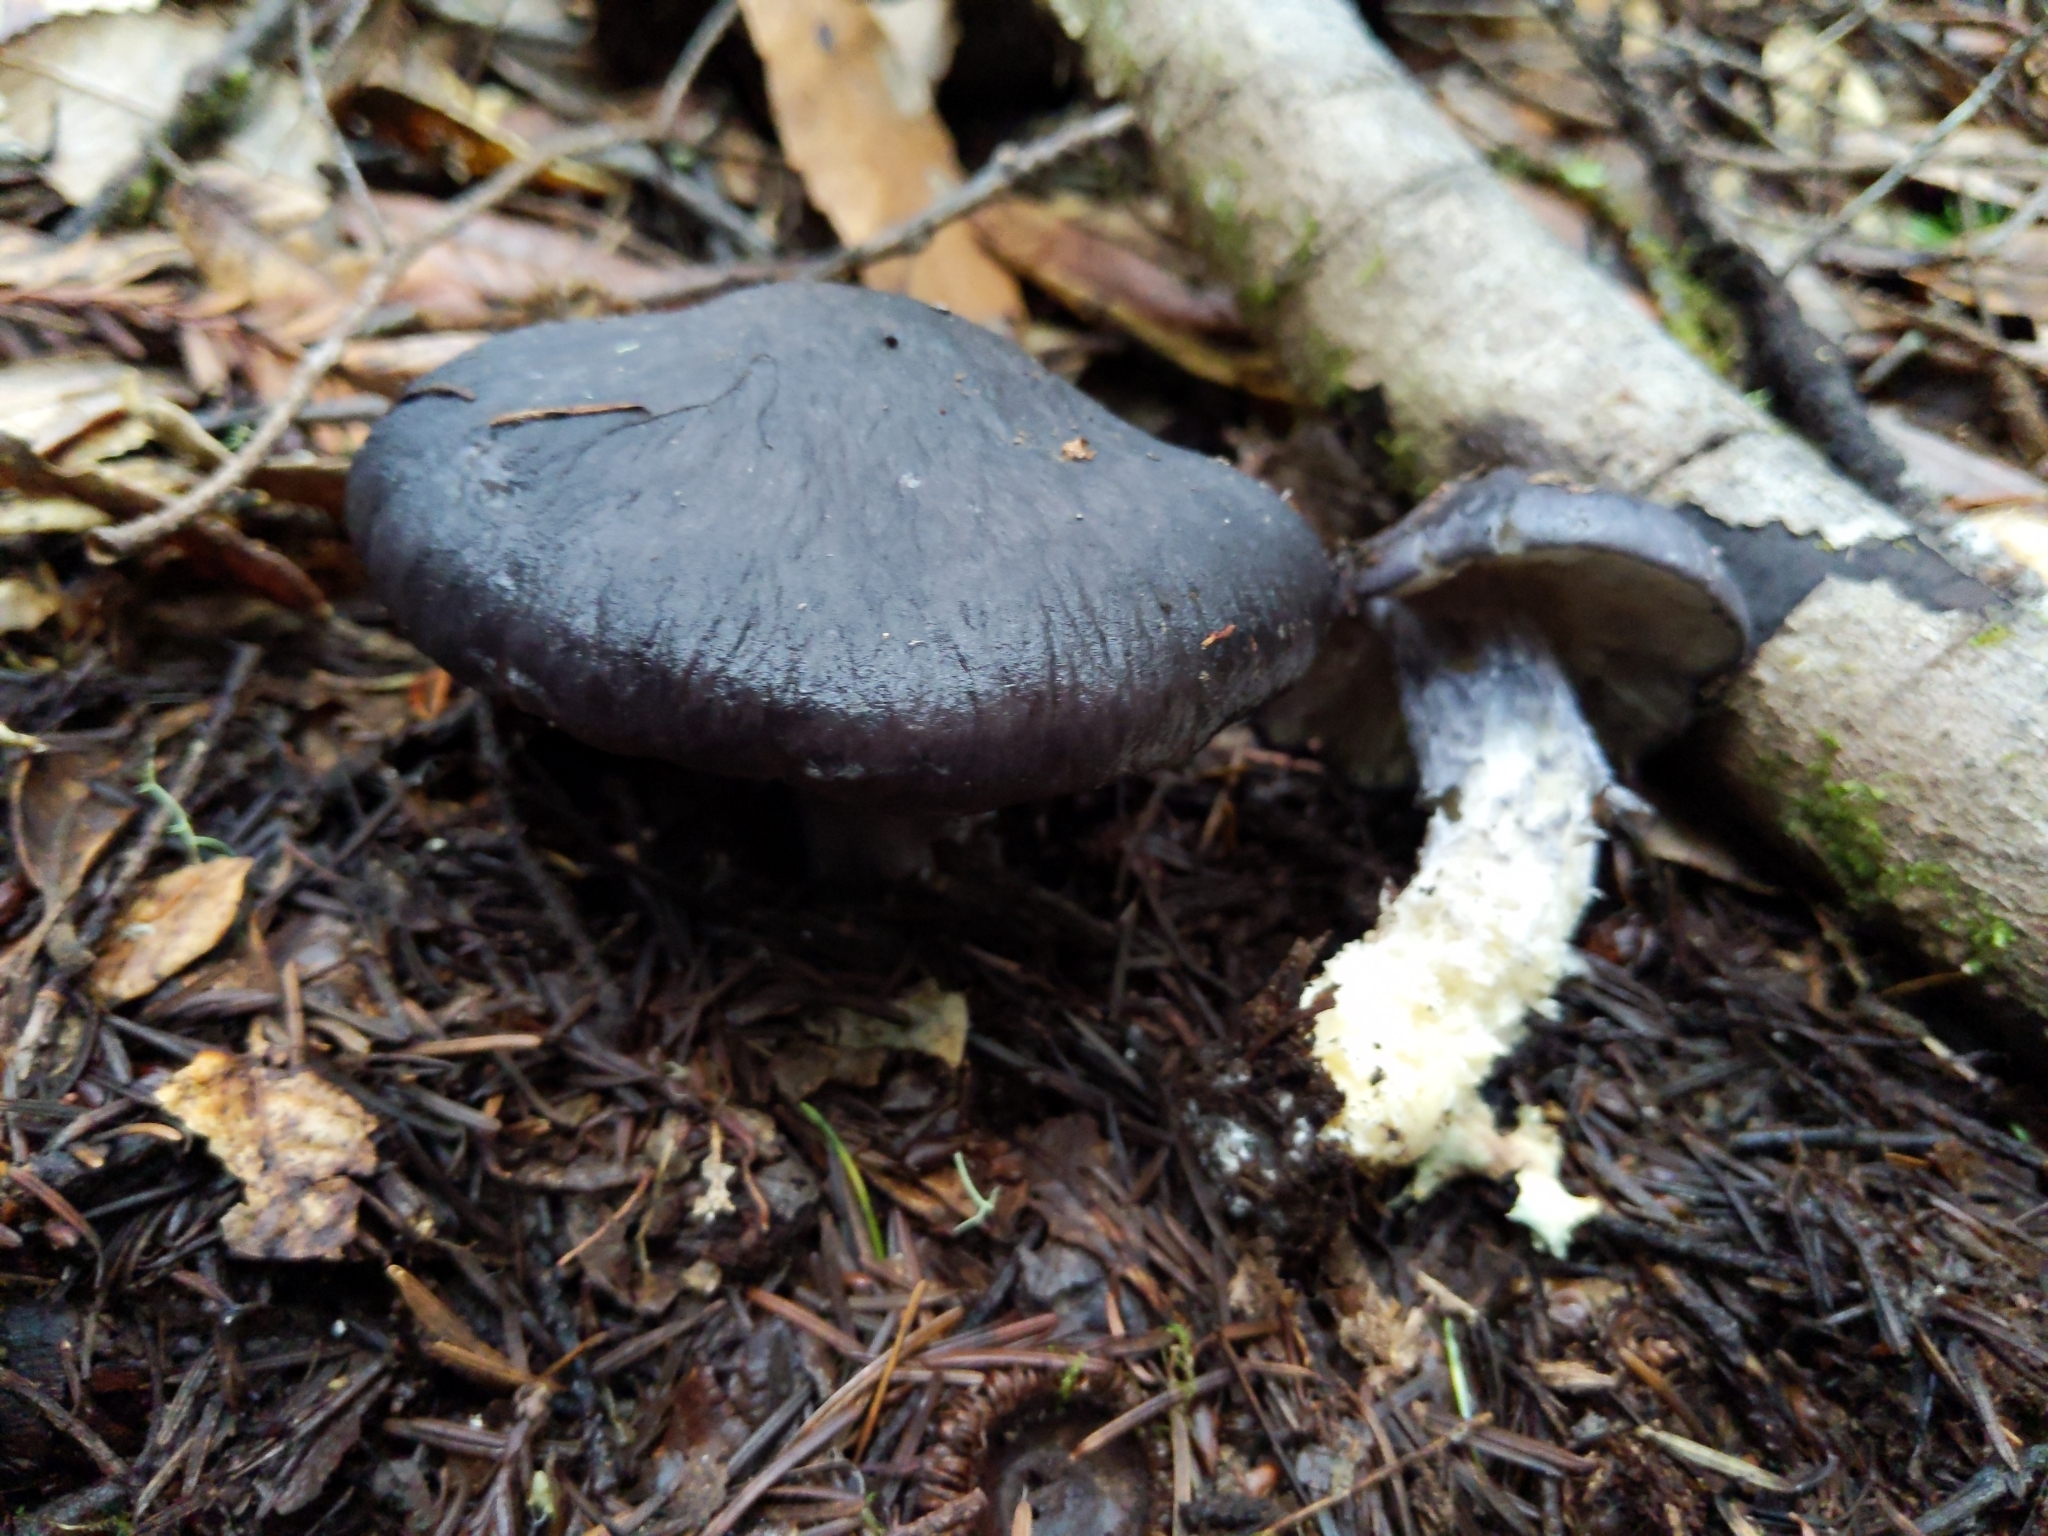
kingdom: Fungi
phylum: Basidiomycota
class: Agaricomycetes
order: Agaricales
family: Entolomataceae
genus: Entoloma
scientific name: Entoloma medianox
